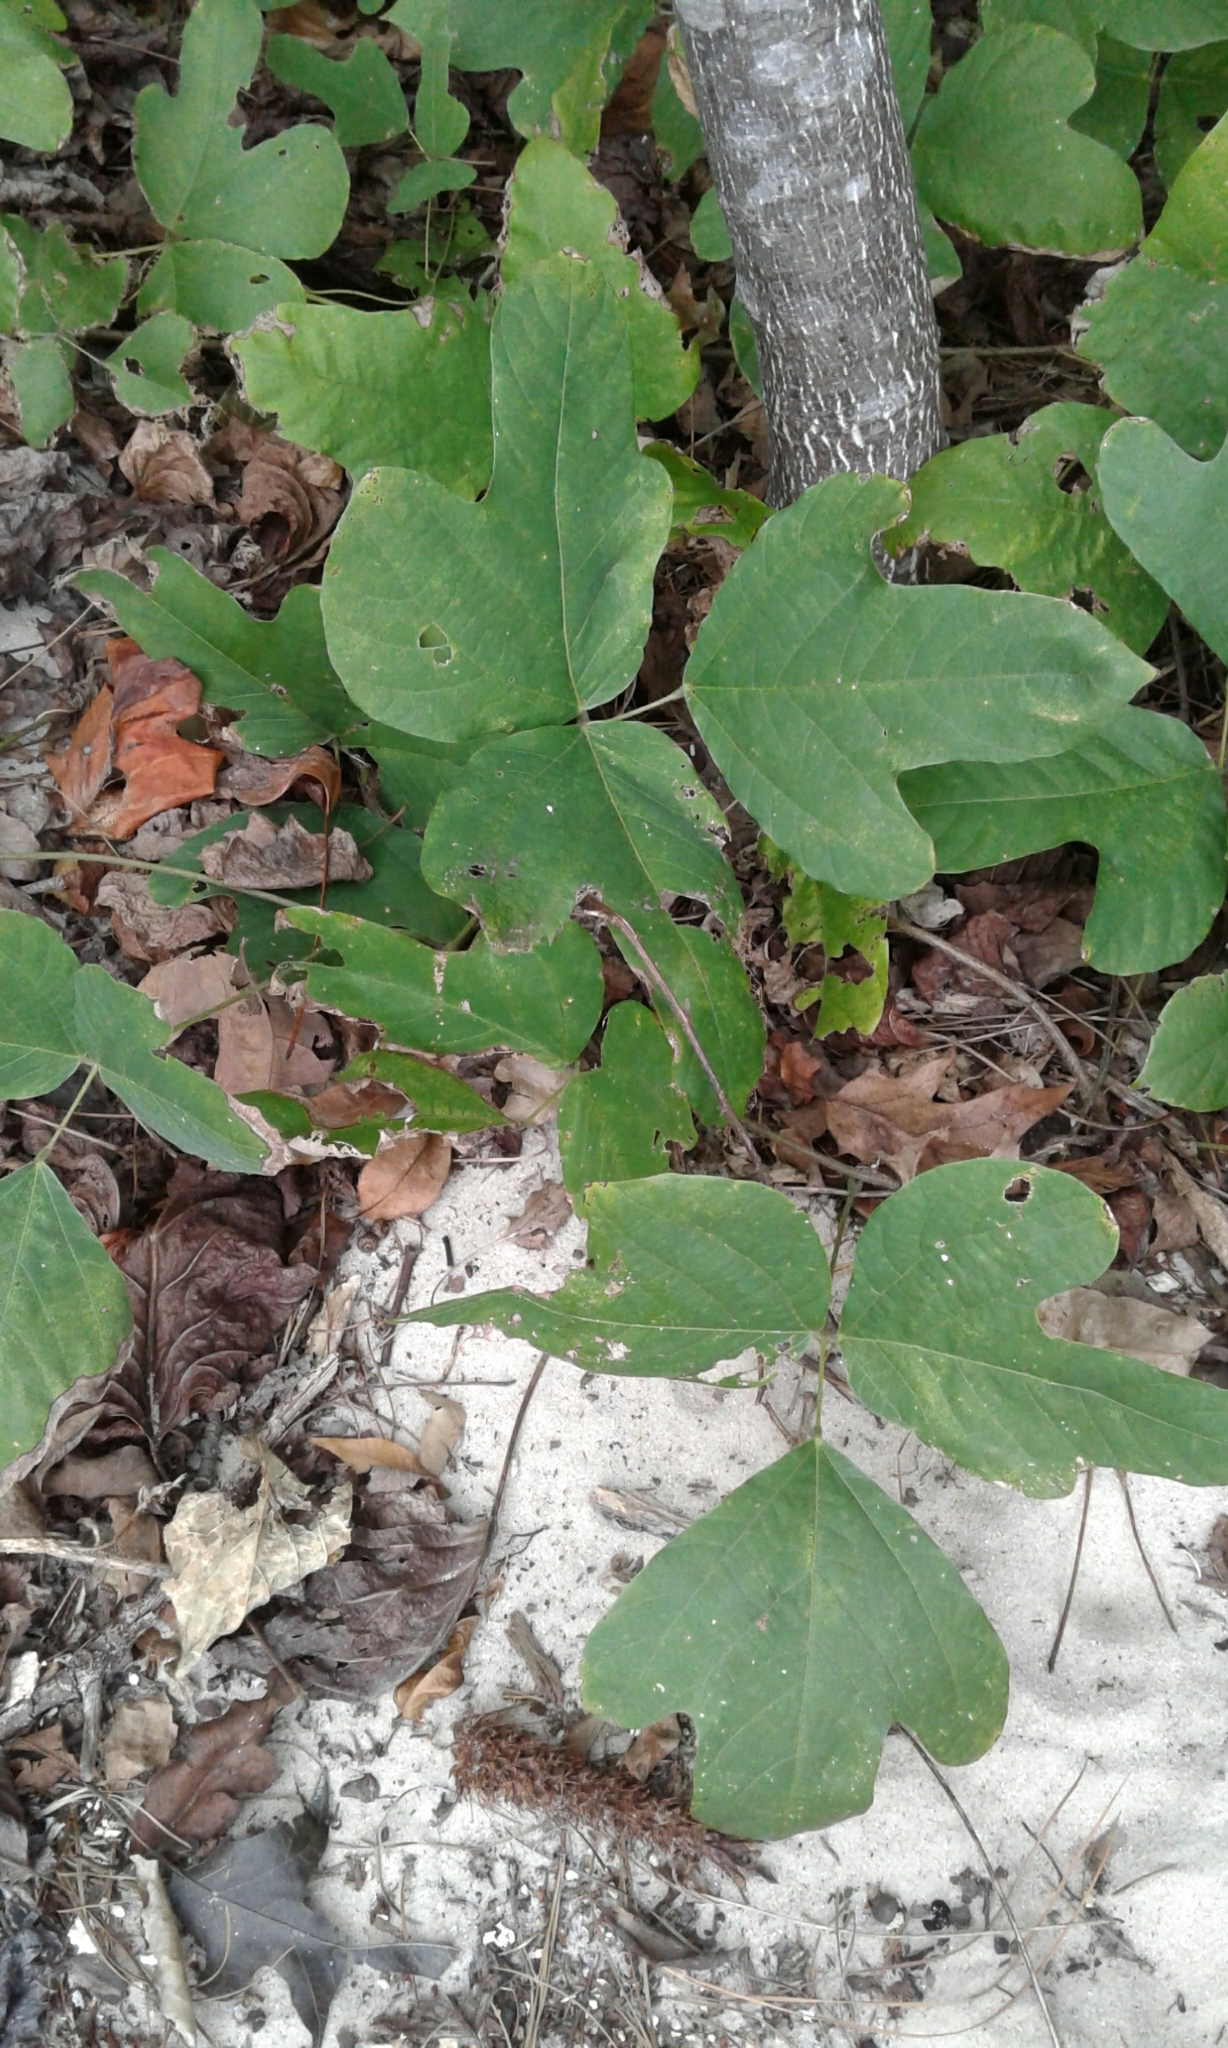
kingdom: Plantae
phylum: Tracheophyta
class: Magnoliopsida
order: Fabales
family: Fabaceae
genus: Pueraria
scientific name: Pueraria montana
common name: Kudzu
